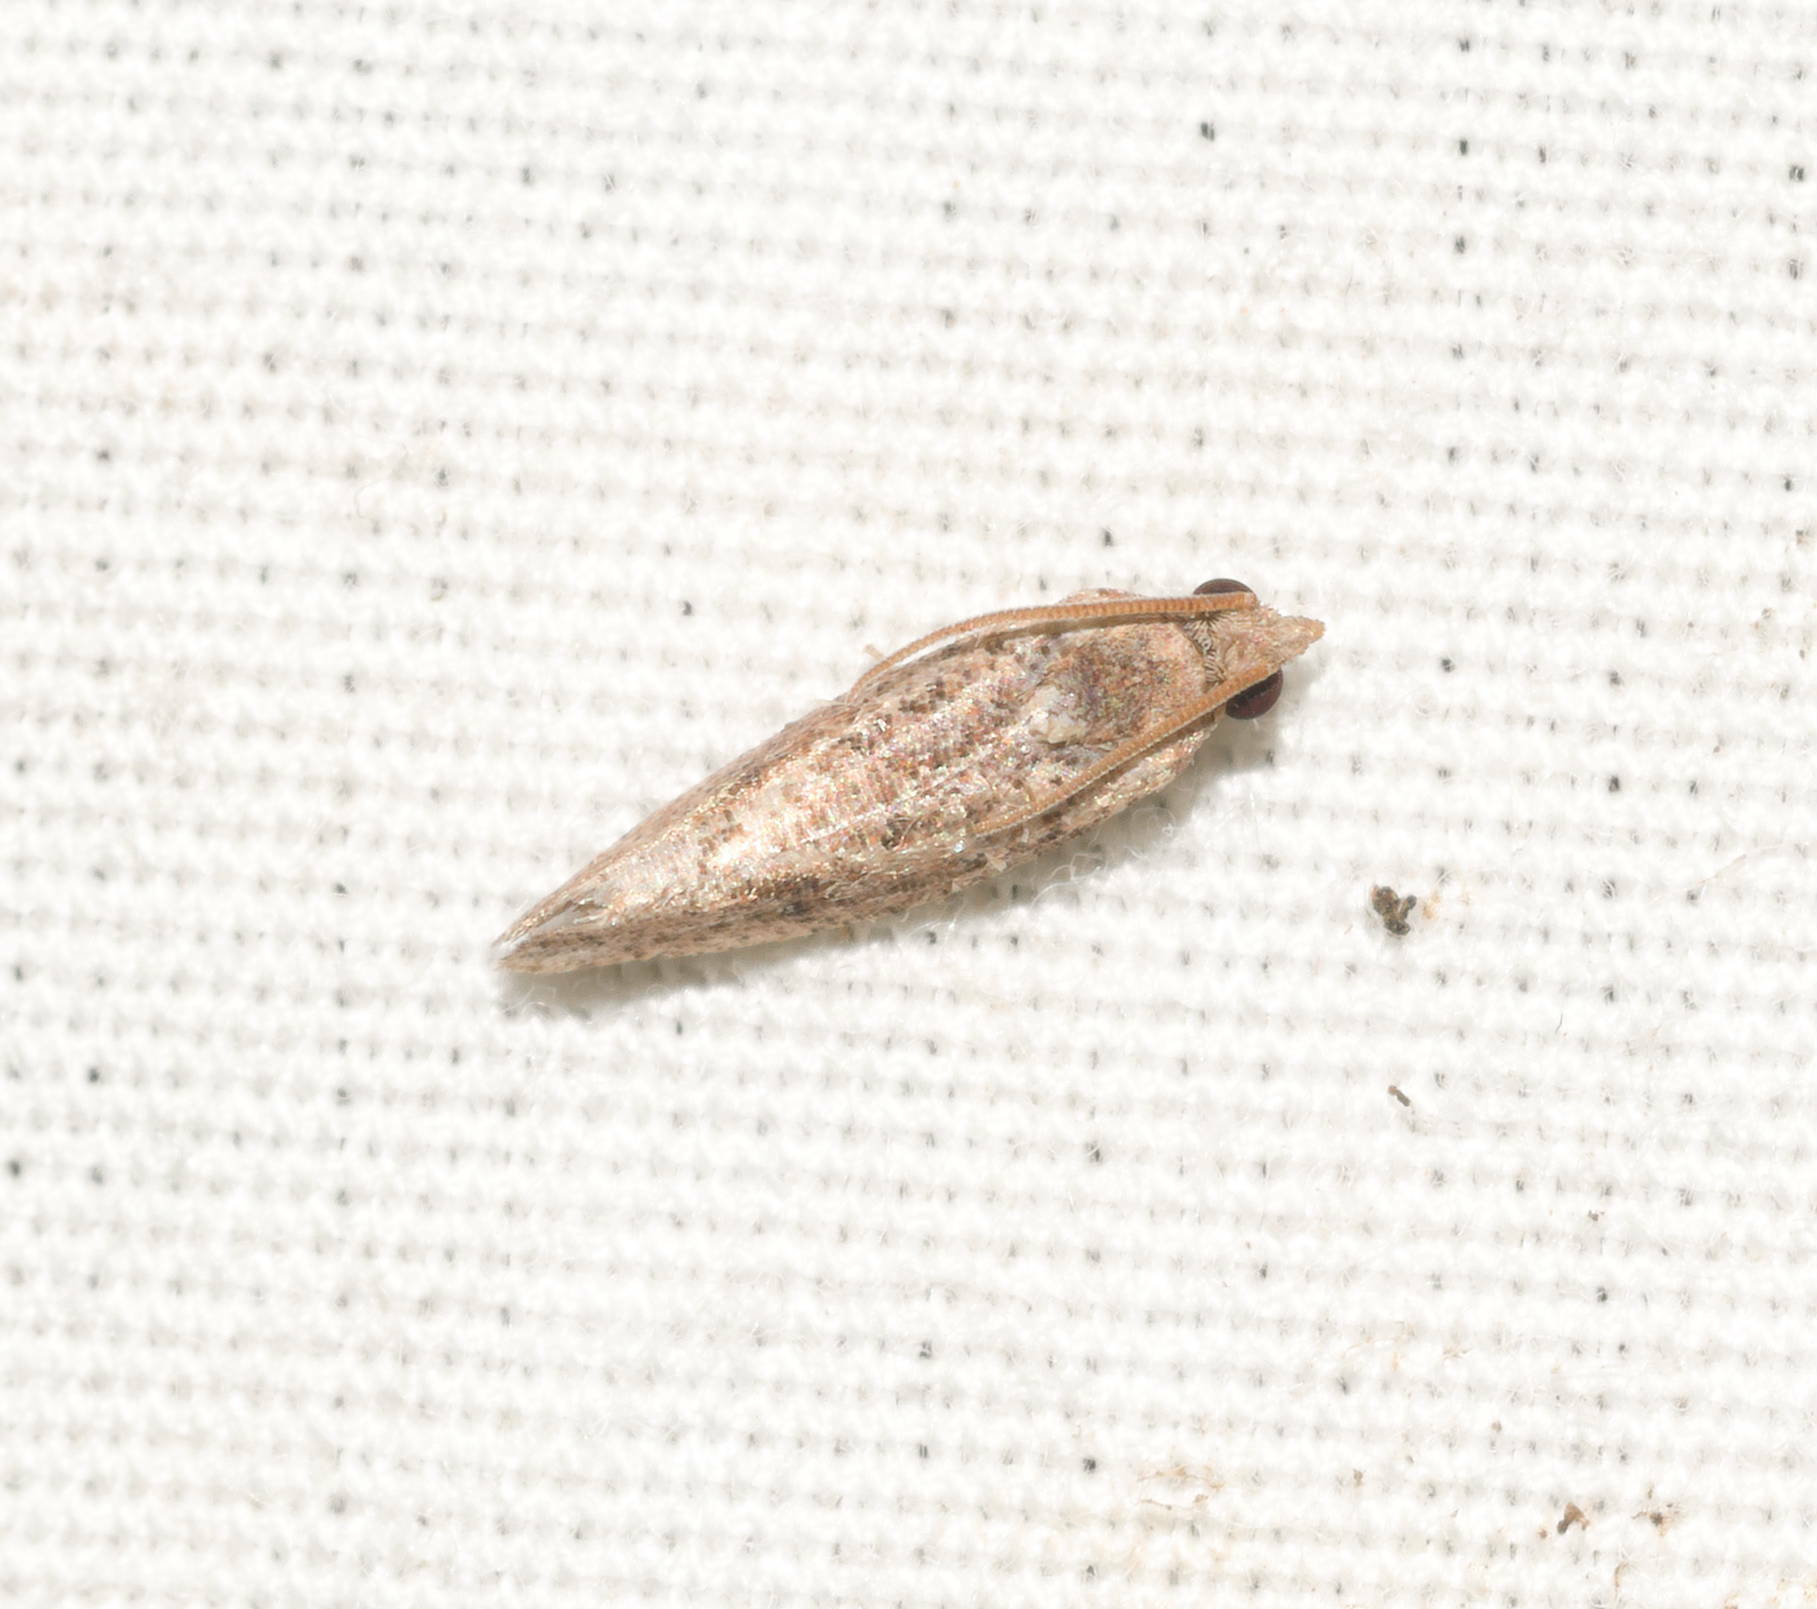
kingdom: Animalia
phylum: Arthropoda
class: Insecta
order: Lepidoptera
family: Tortricidae
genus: Cryptophlebia
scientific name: Cryptophlebia illepida
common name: Moth
